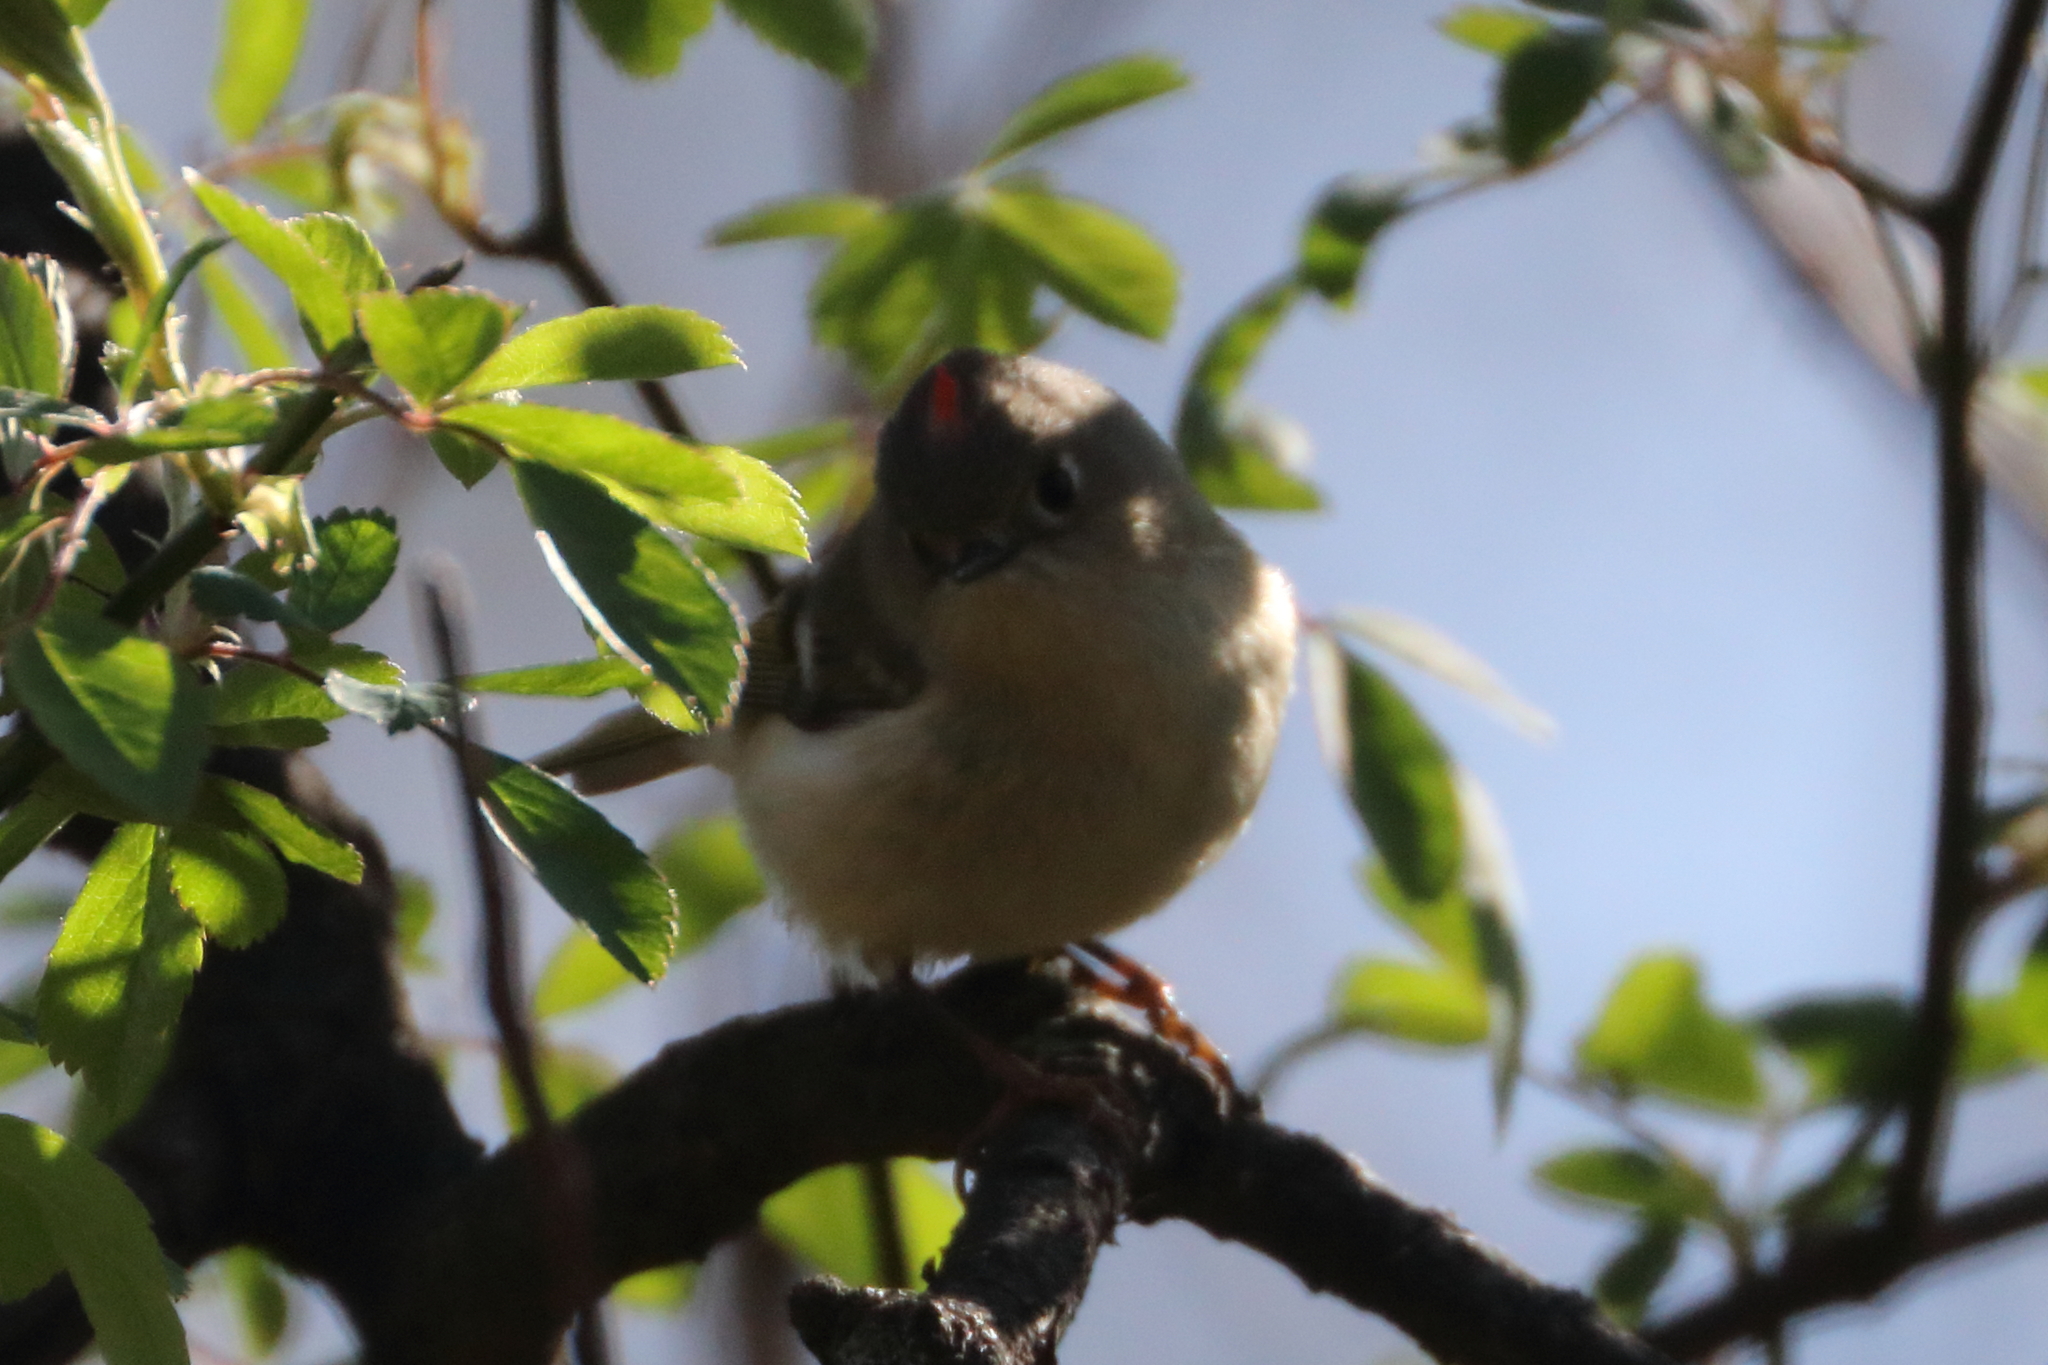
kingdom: Animalia
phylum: Chordata
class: Aves
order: Passeriformes
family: Regulidae
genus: Regulus
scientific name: Regulus calendula
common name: Ruby-crowned kinglet
